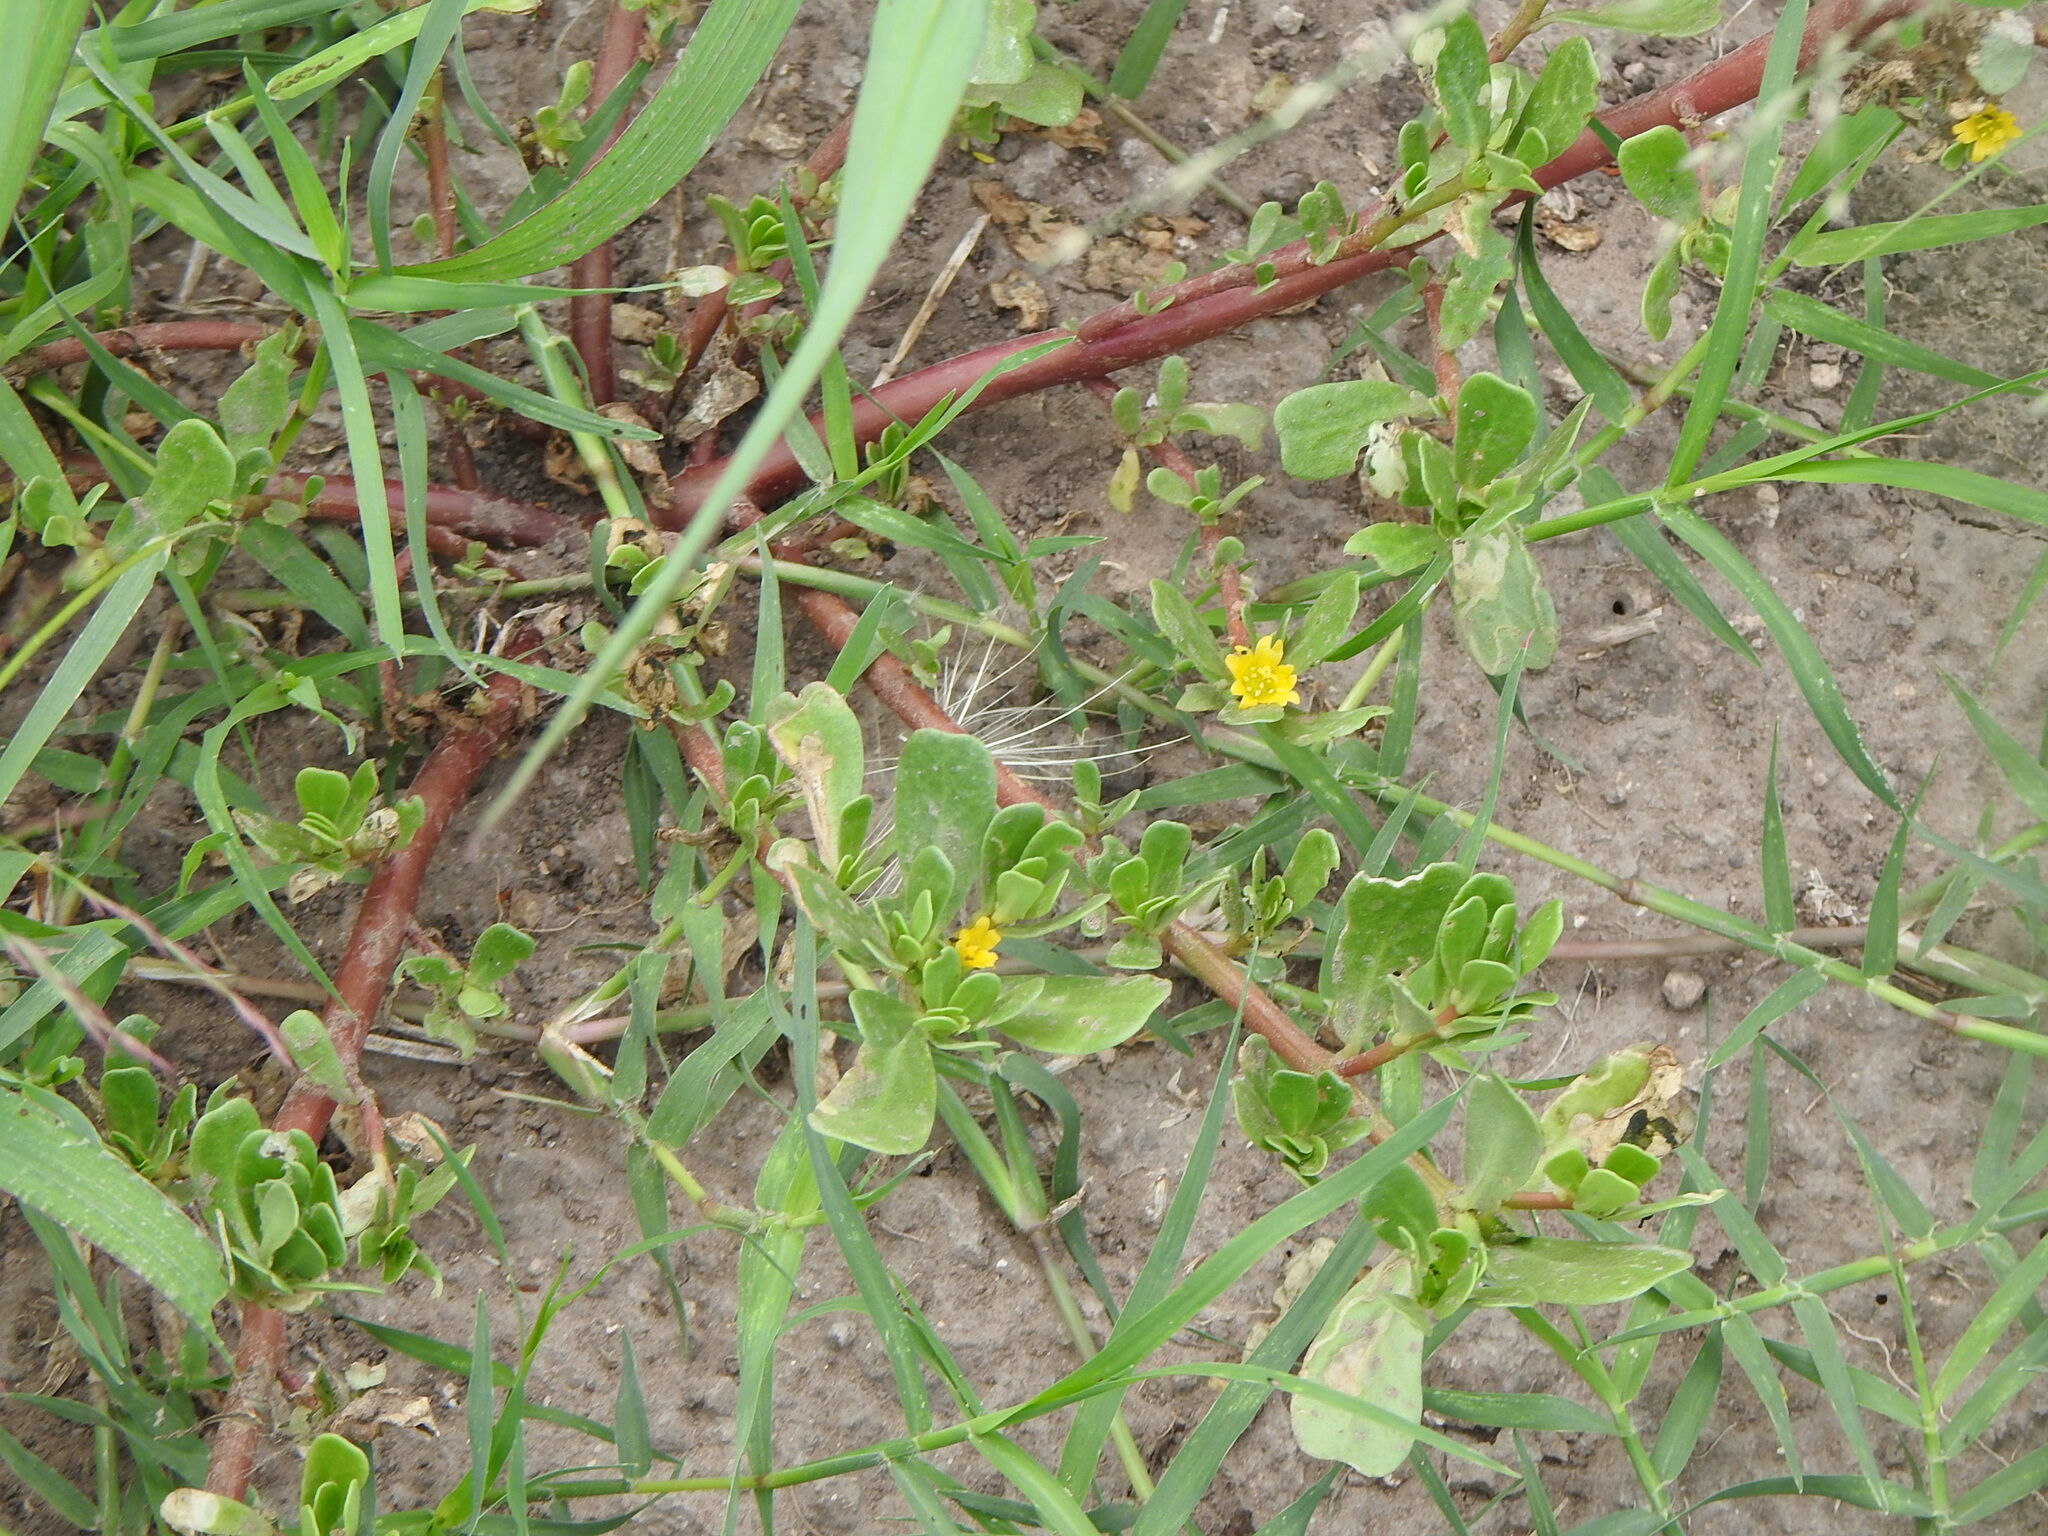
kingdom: Plantae
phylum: Tracheophyta
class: Magnoliopsida
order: Caryophyllales
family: Portulacaceae
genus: Portulaca
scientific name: Portulaca oleracea
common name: Common purslane
